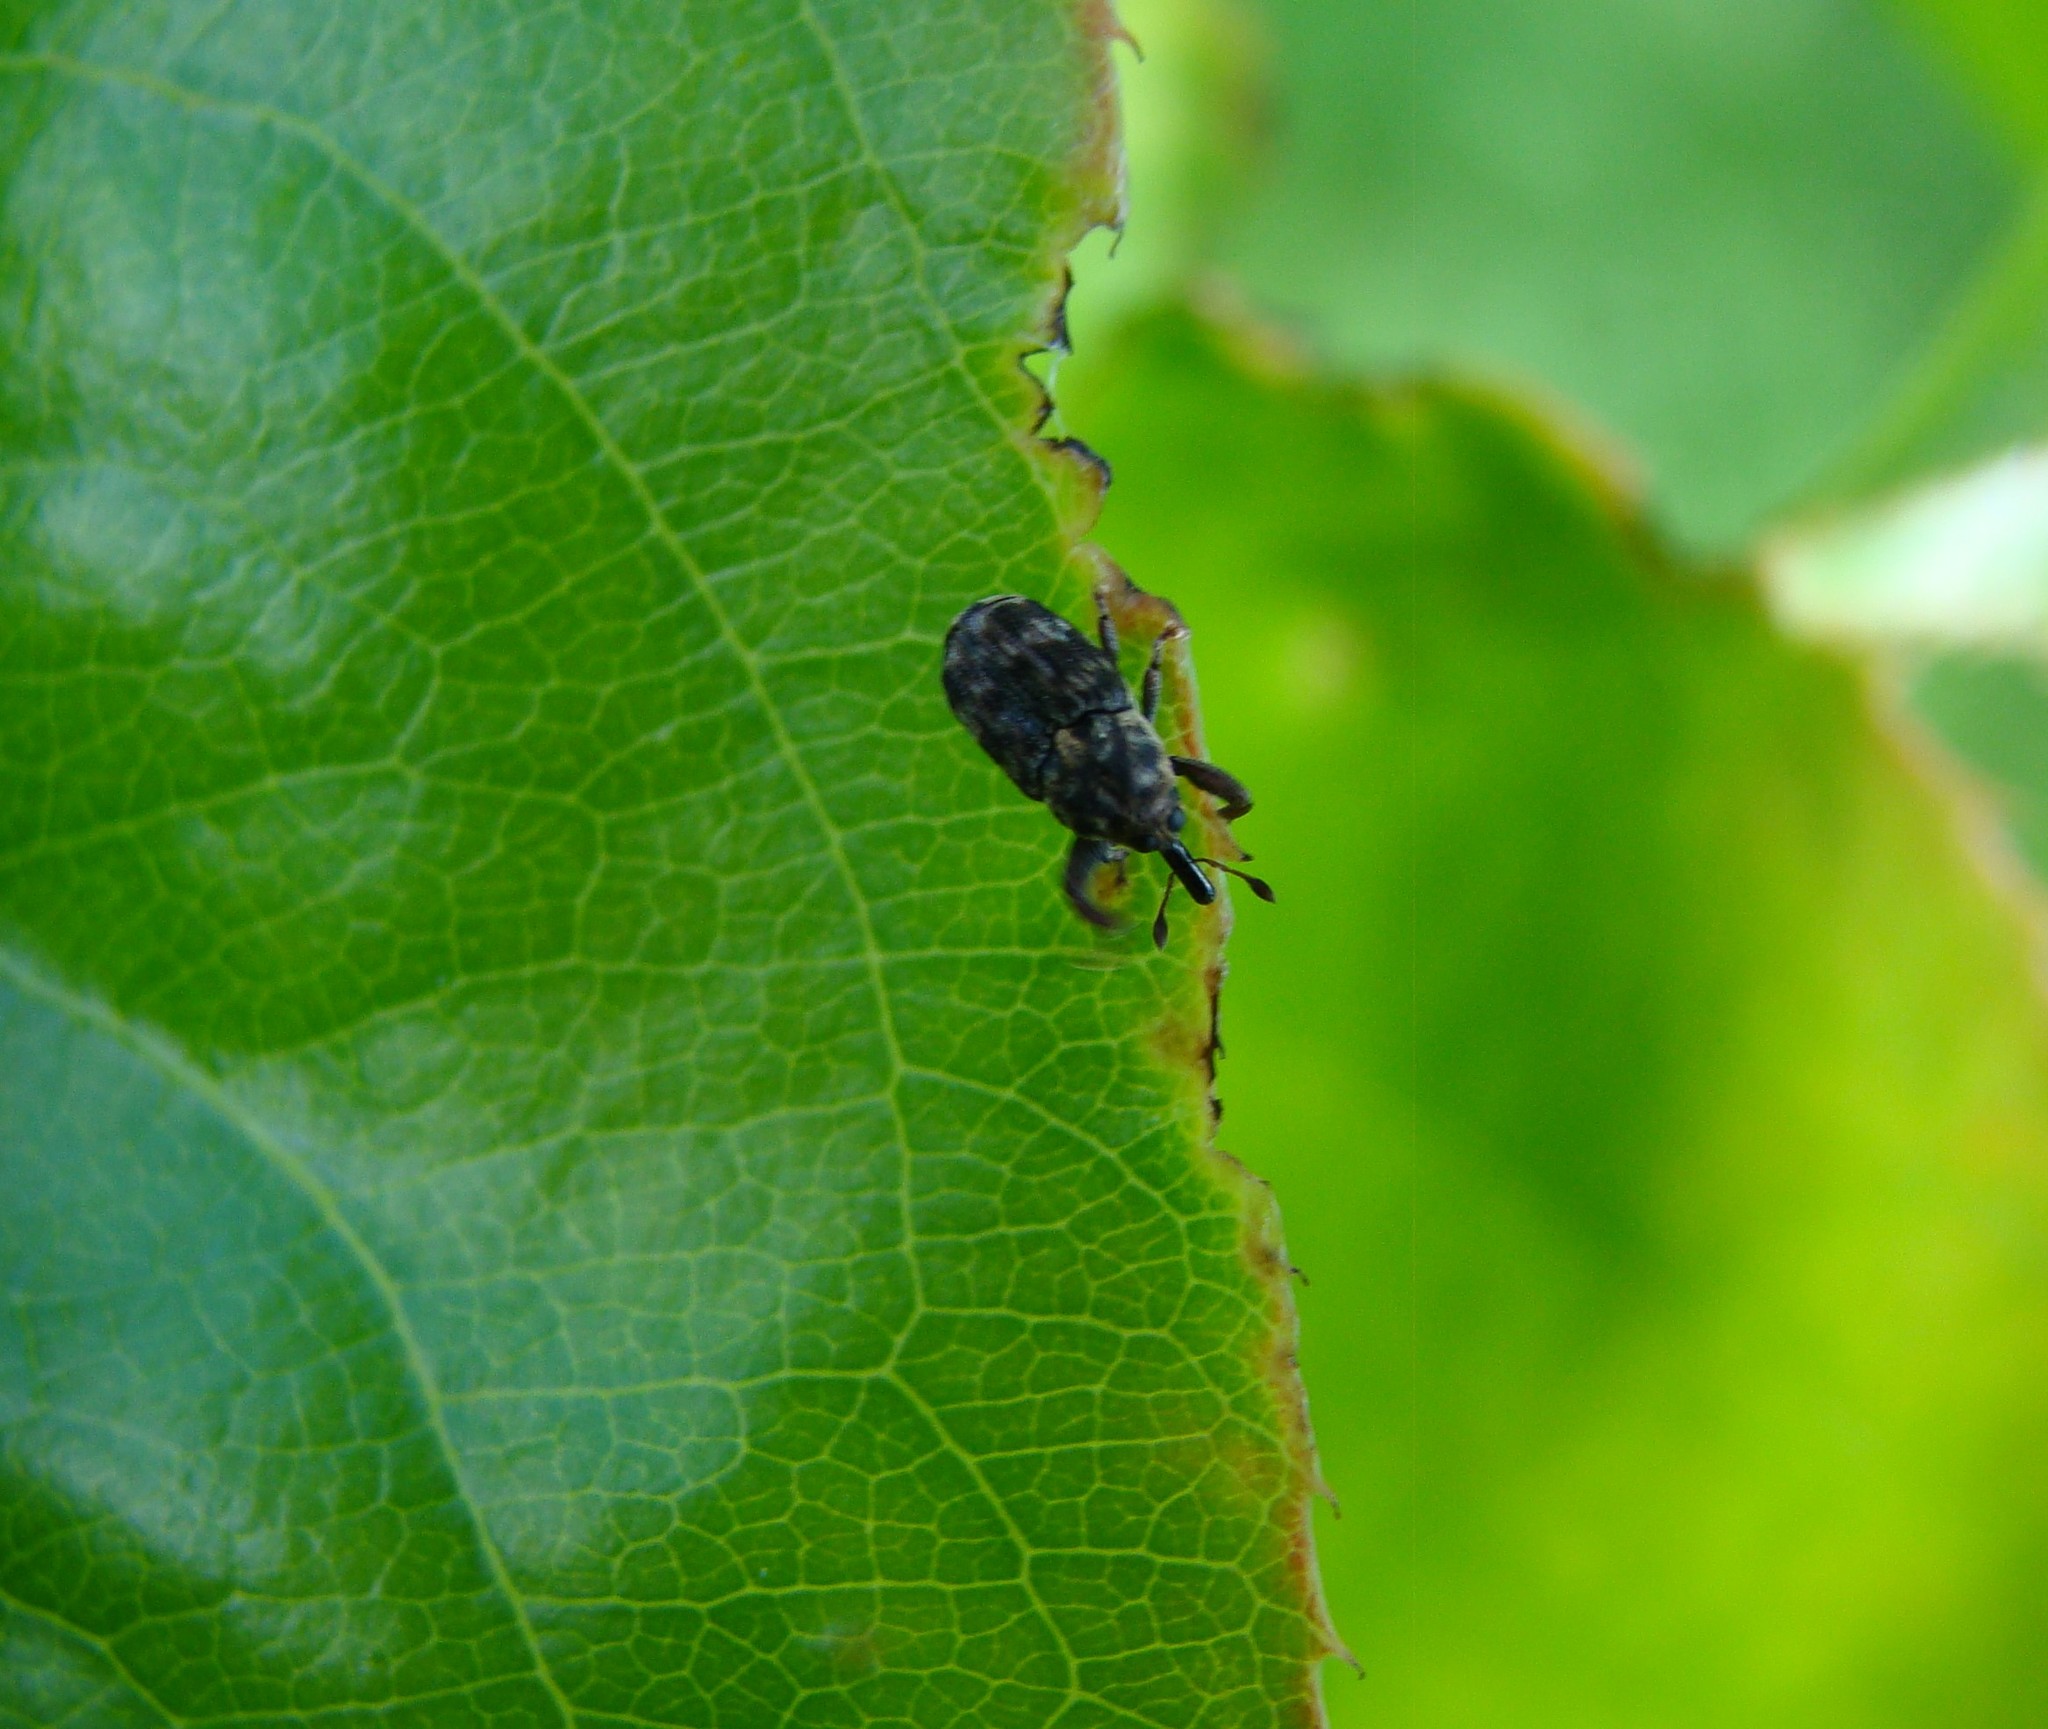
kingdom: Animalia
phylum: Arthropoda
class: Insecta
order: Coleoptera
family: Curculionidae
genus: Neolaemosaccus
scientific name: Neolaemosaccus narinus
